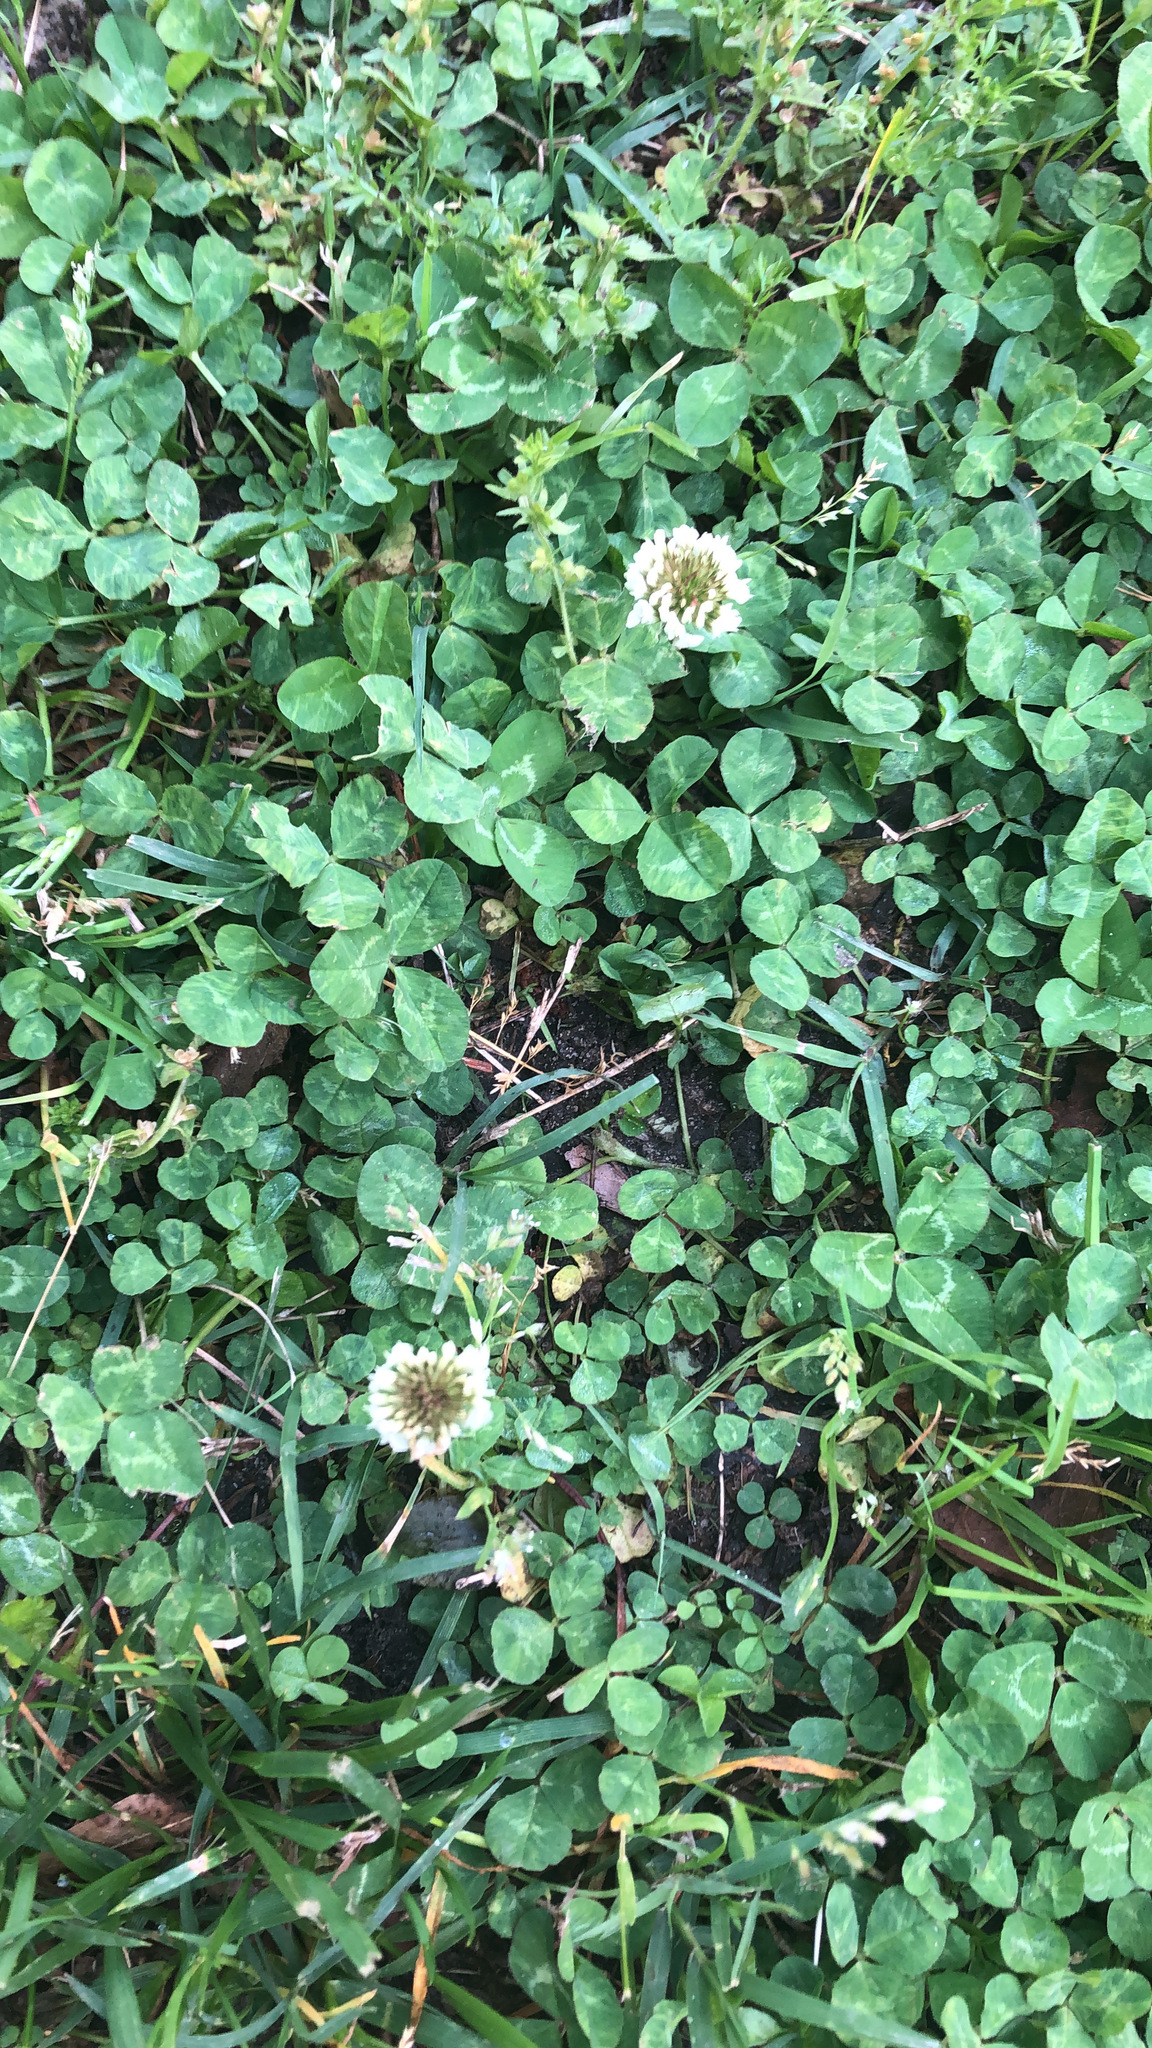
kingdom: Plantae
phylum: Tracheophyta
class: Magnoliopsida
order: Fabales
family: Fabaceae
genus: Trifolium
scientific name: Trifolium repens
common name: White clover
